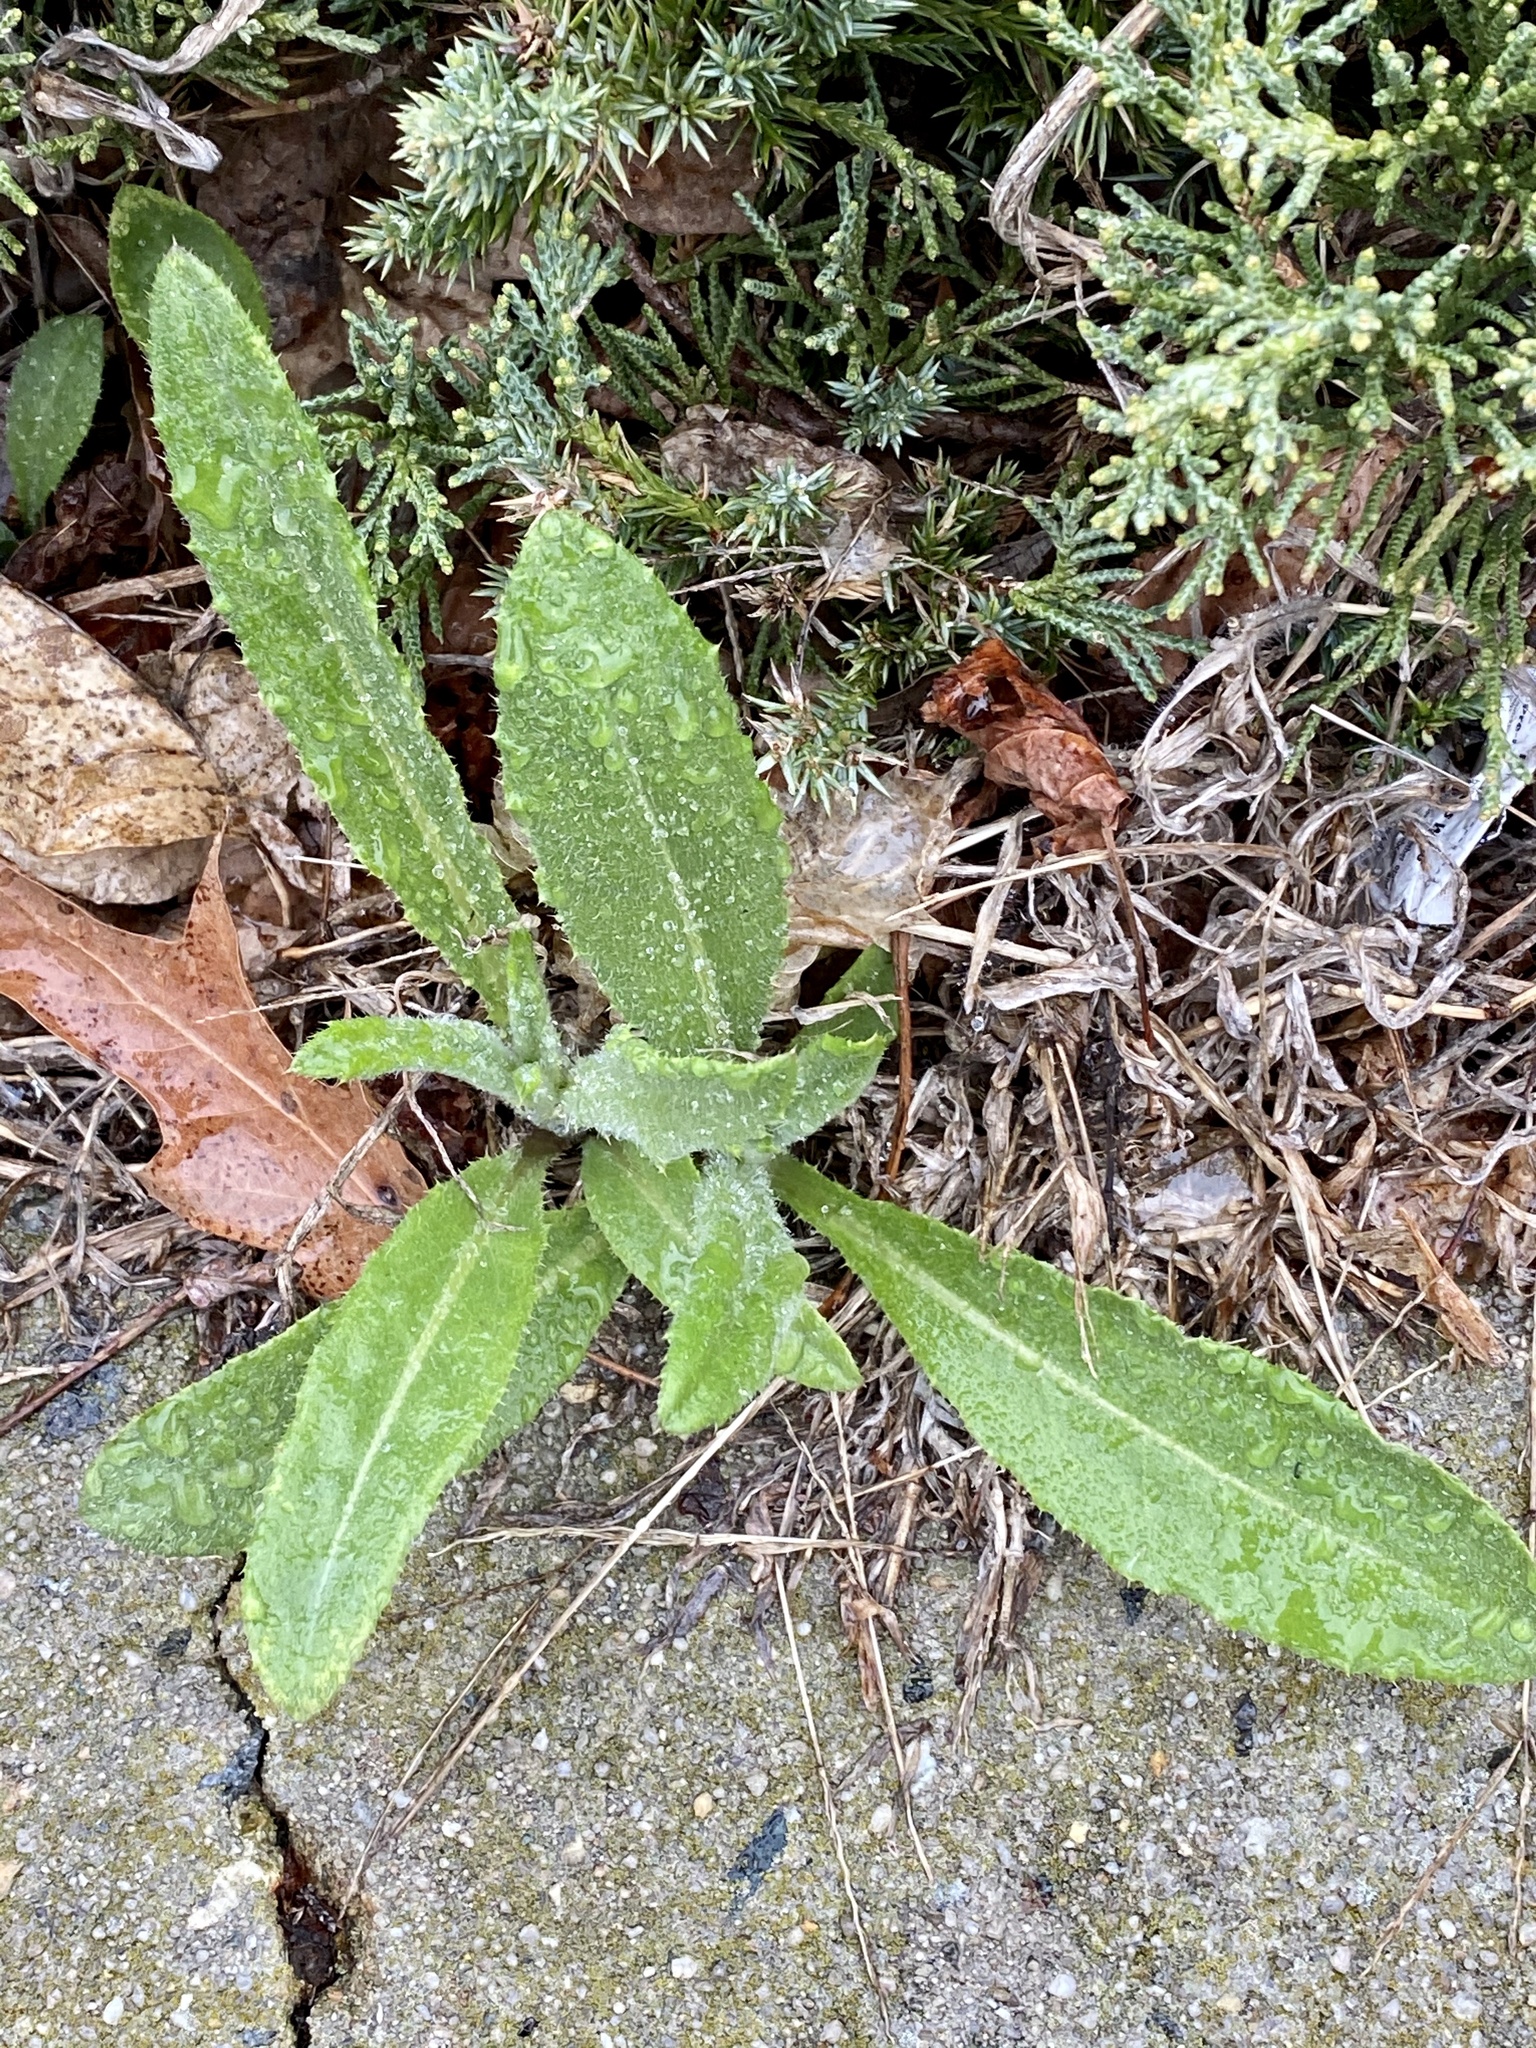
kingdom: Plantae
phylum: Tracheophyta
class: Magnoliopsida
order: Asterales
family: Asteraceae
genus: Cirsium
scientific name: Cirsium arvense
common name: Creeping thistle
